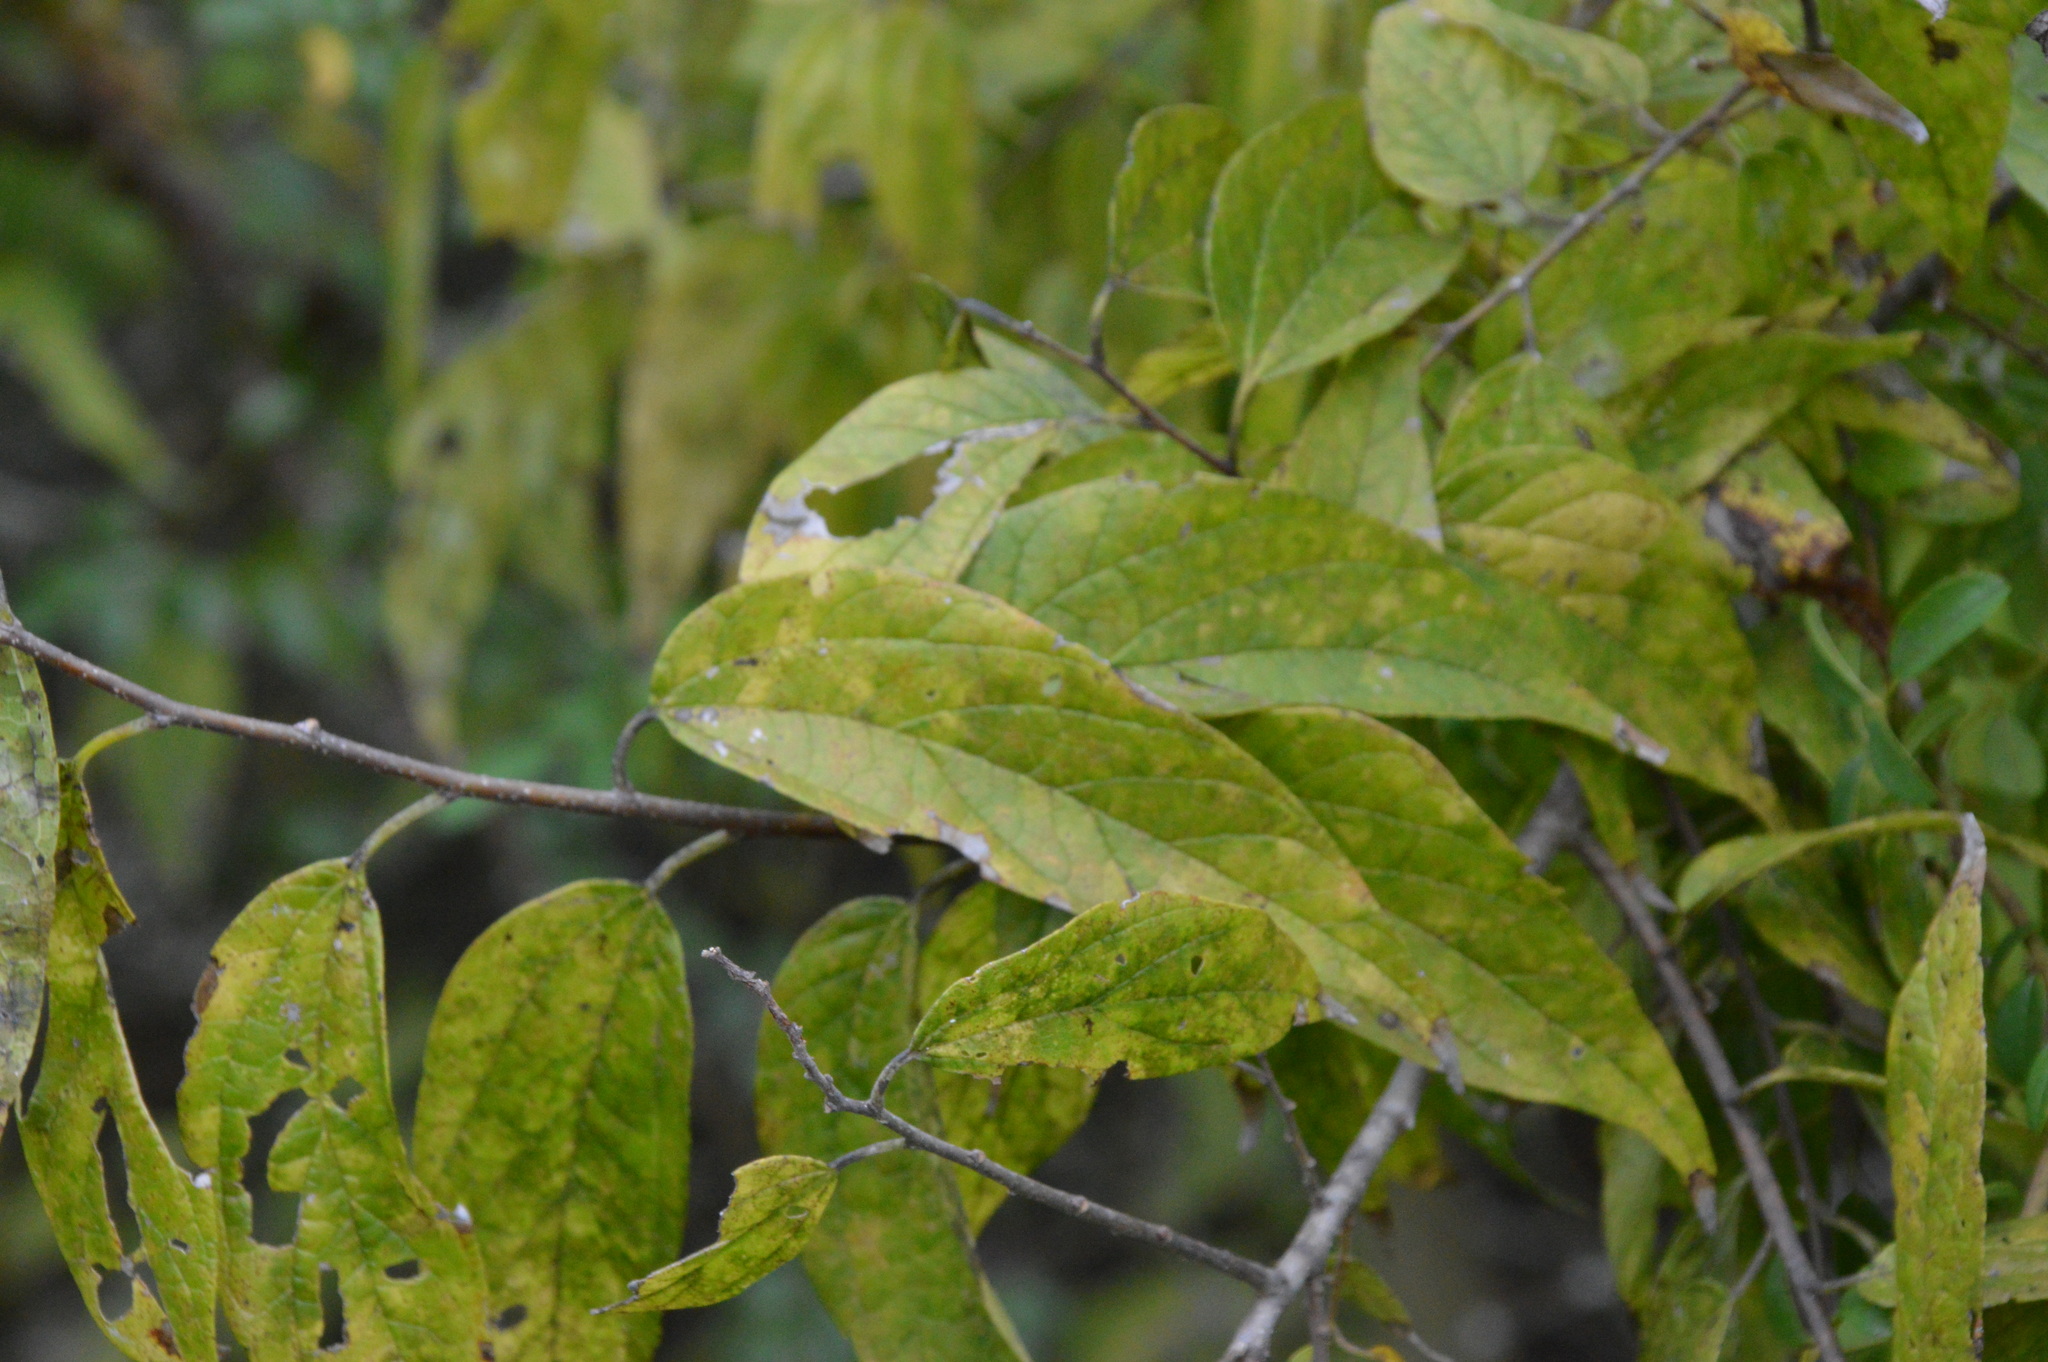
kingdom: Plantae
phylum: Tracheophyta
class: Magnoliopsida
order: Rosales
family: Cannabaceae
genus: Celtis
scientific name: Celtis laevigata
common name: Sugarberry
